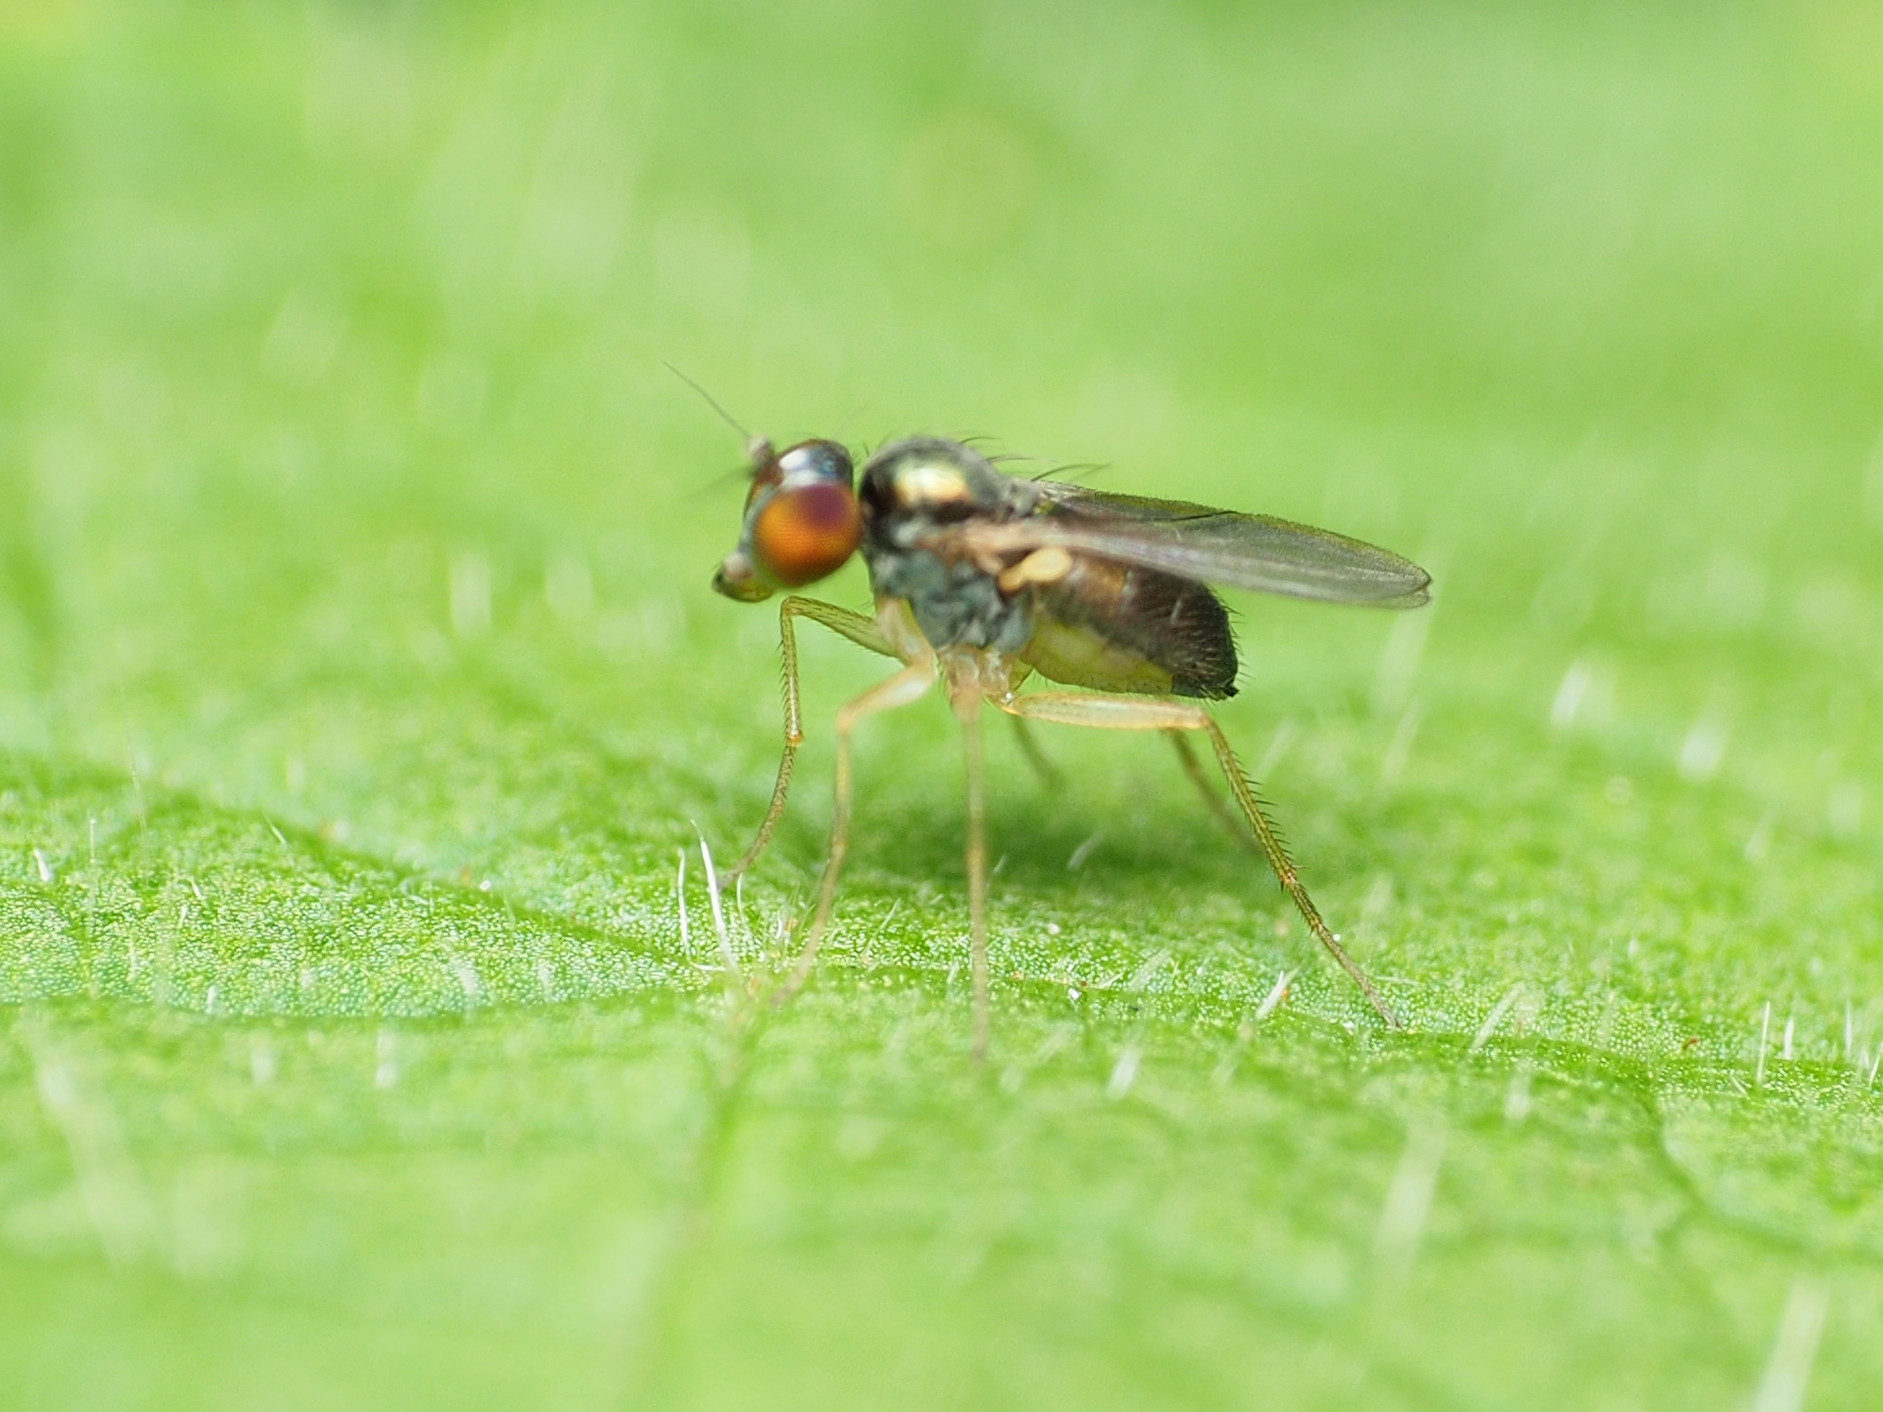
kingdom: Animalia
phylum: Arthropoda
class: Insecta
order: Diptera
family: Dolichopodidae
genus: Chrysotus
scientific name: Chrysotus
